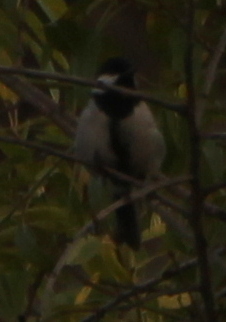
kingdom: Animalia
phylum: Chordata
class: Aves
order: Passeriformes
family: Paridae
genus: Parus
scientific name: Parus major
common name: Great tit
